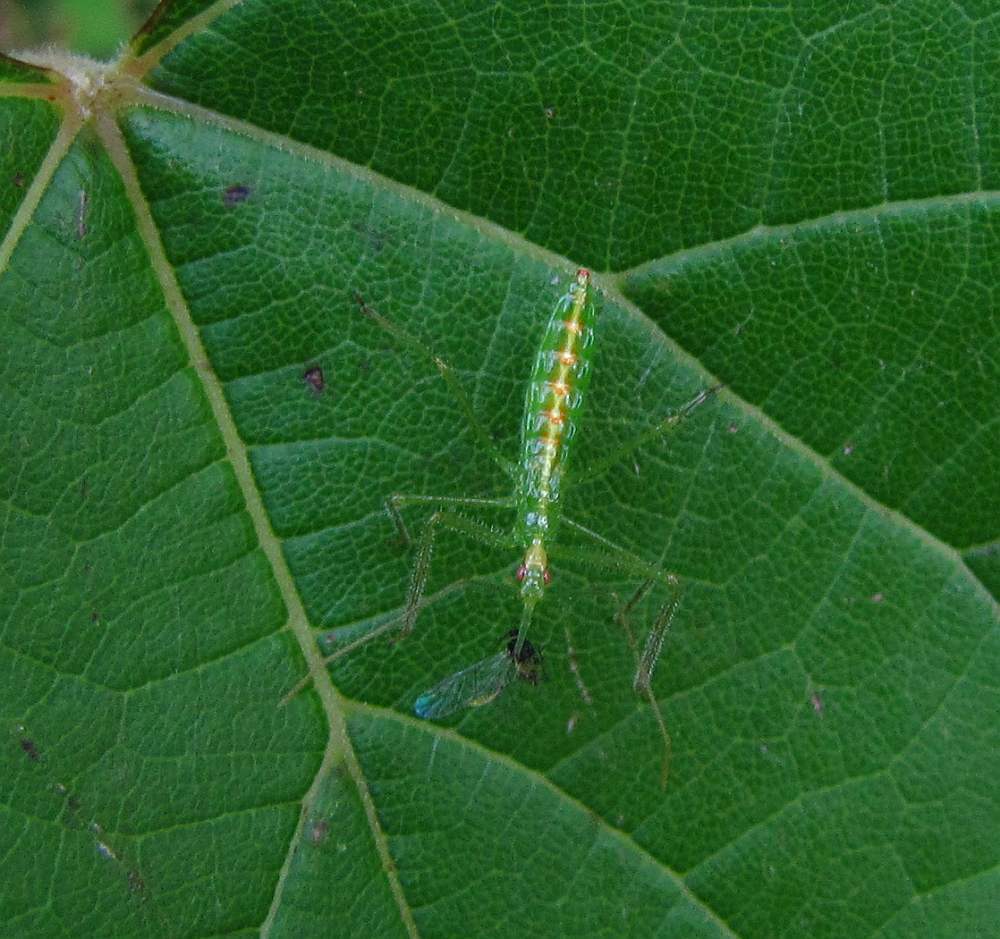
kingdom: Animalia
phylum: Arthropoda
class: Insecta
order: Hemiptera
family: Reduviidae
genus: Zelus
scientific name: Zelus luridus
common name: Pale green assassin bug
